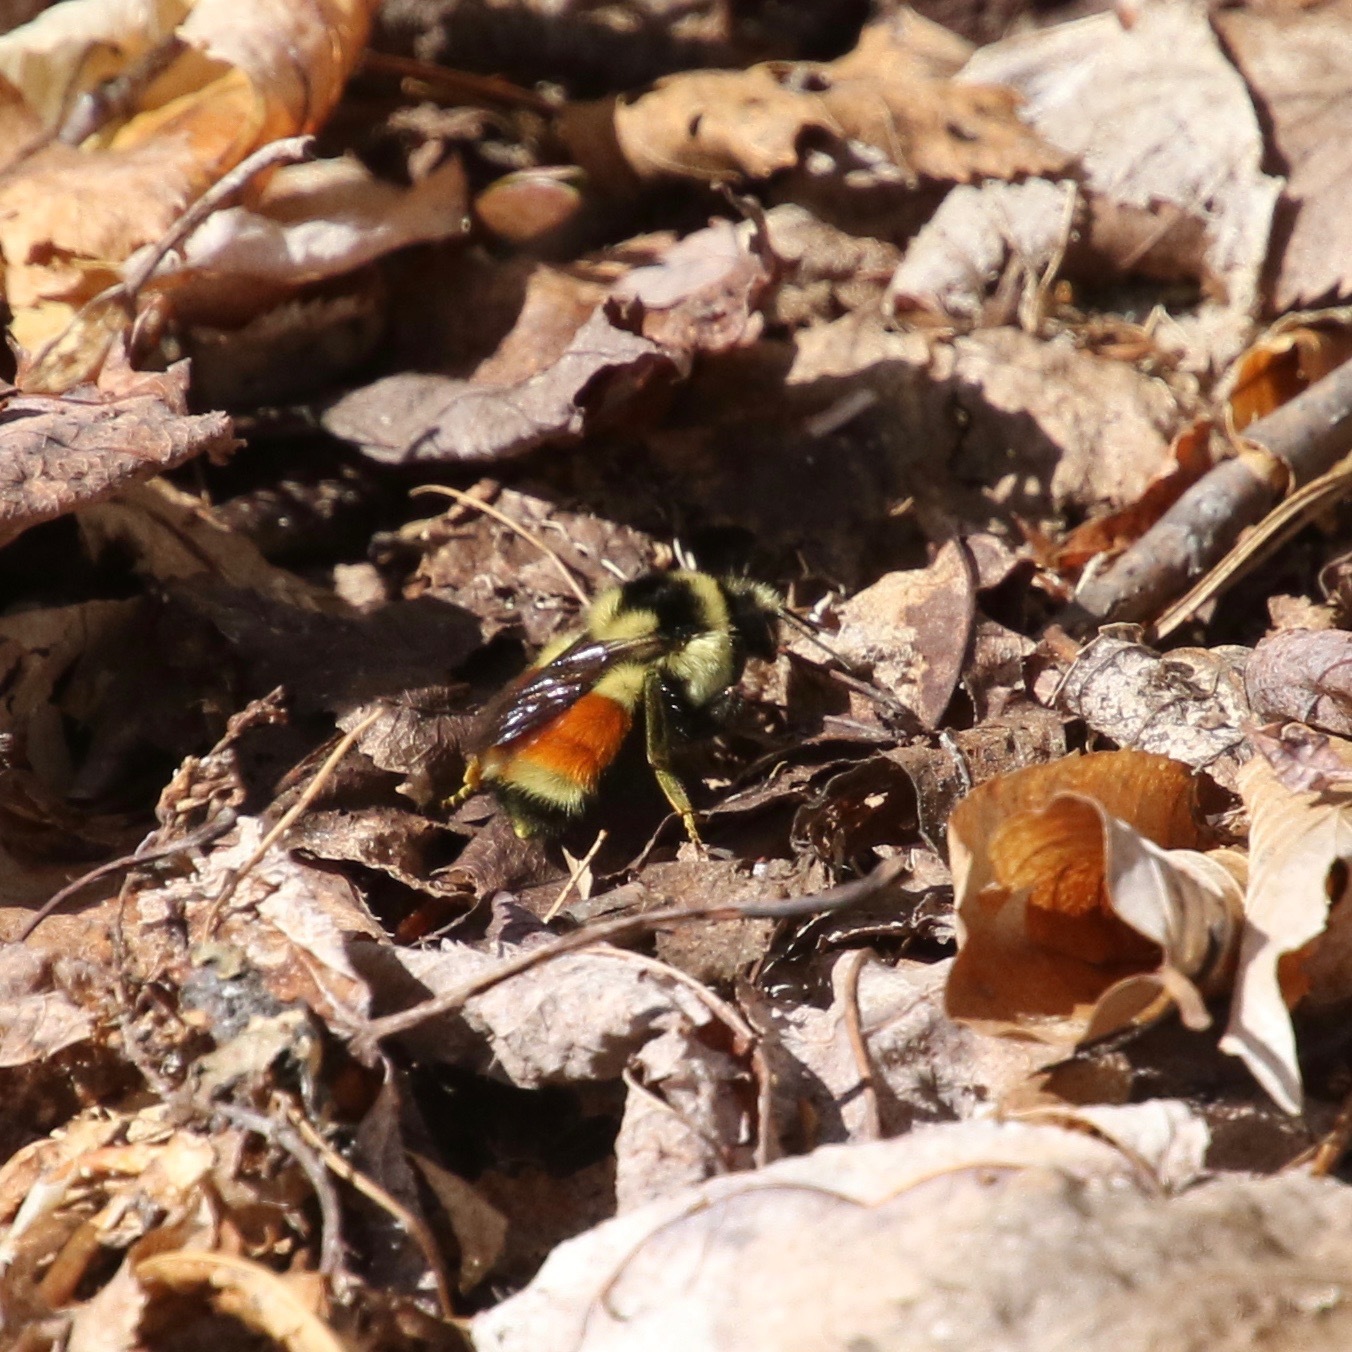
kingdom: Animalia
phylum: Arthropoda
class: Insecta
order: Hymenoptera
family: Apidae
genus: Bombus
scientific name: Bombus ternarius
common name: Tri-colored bumble bee
